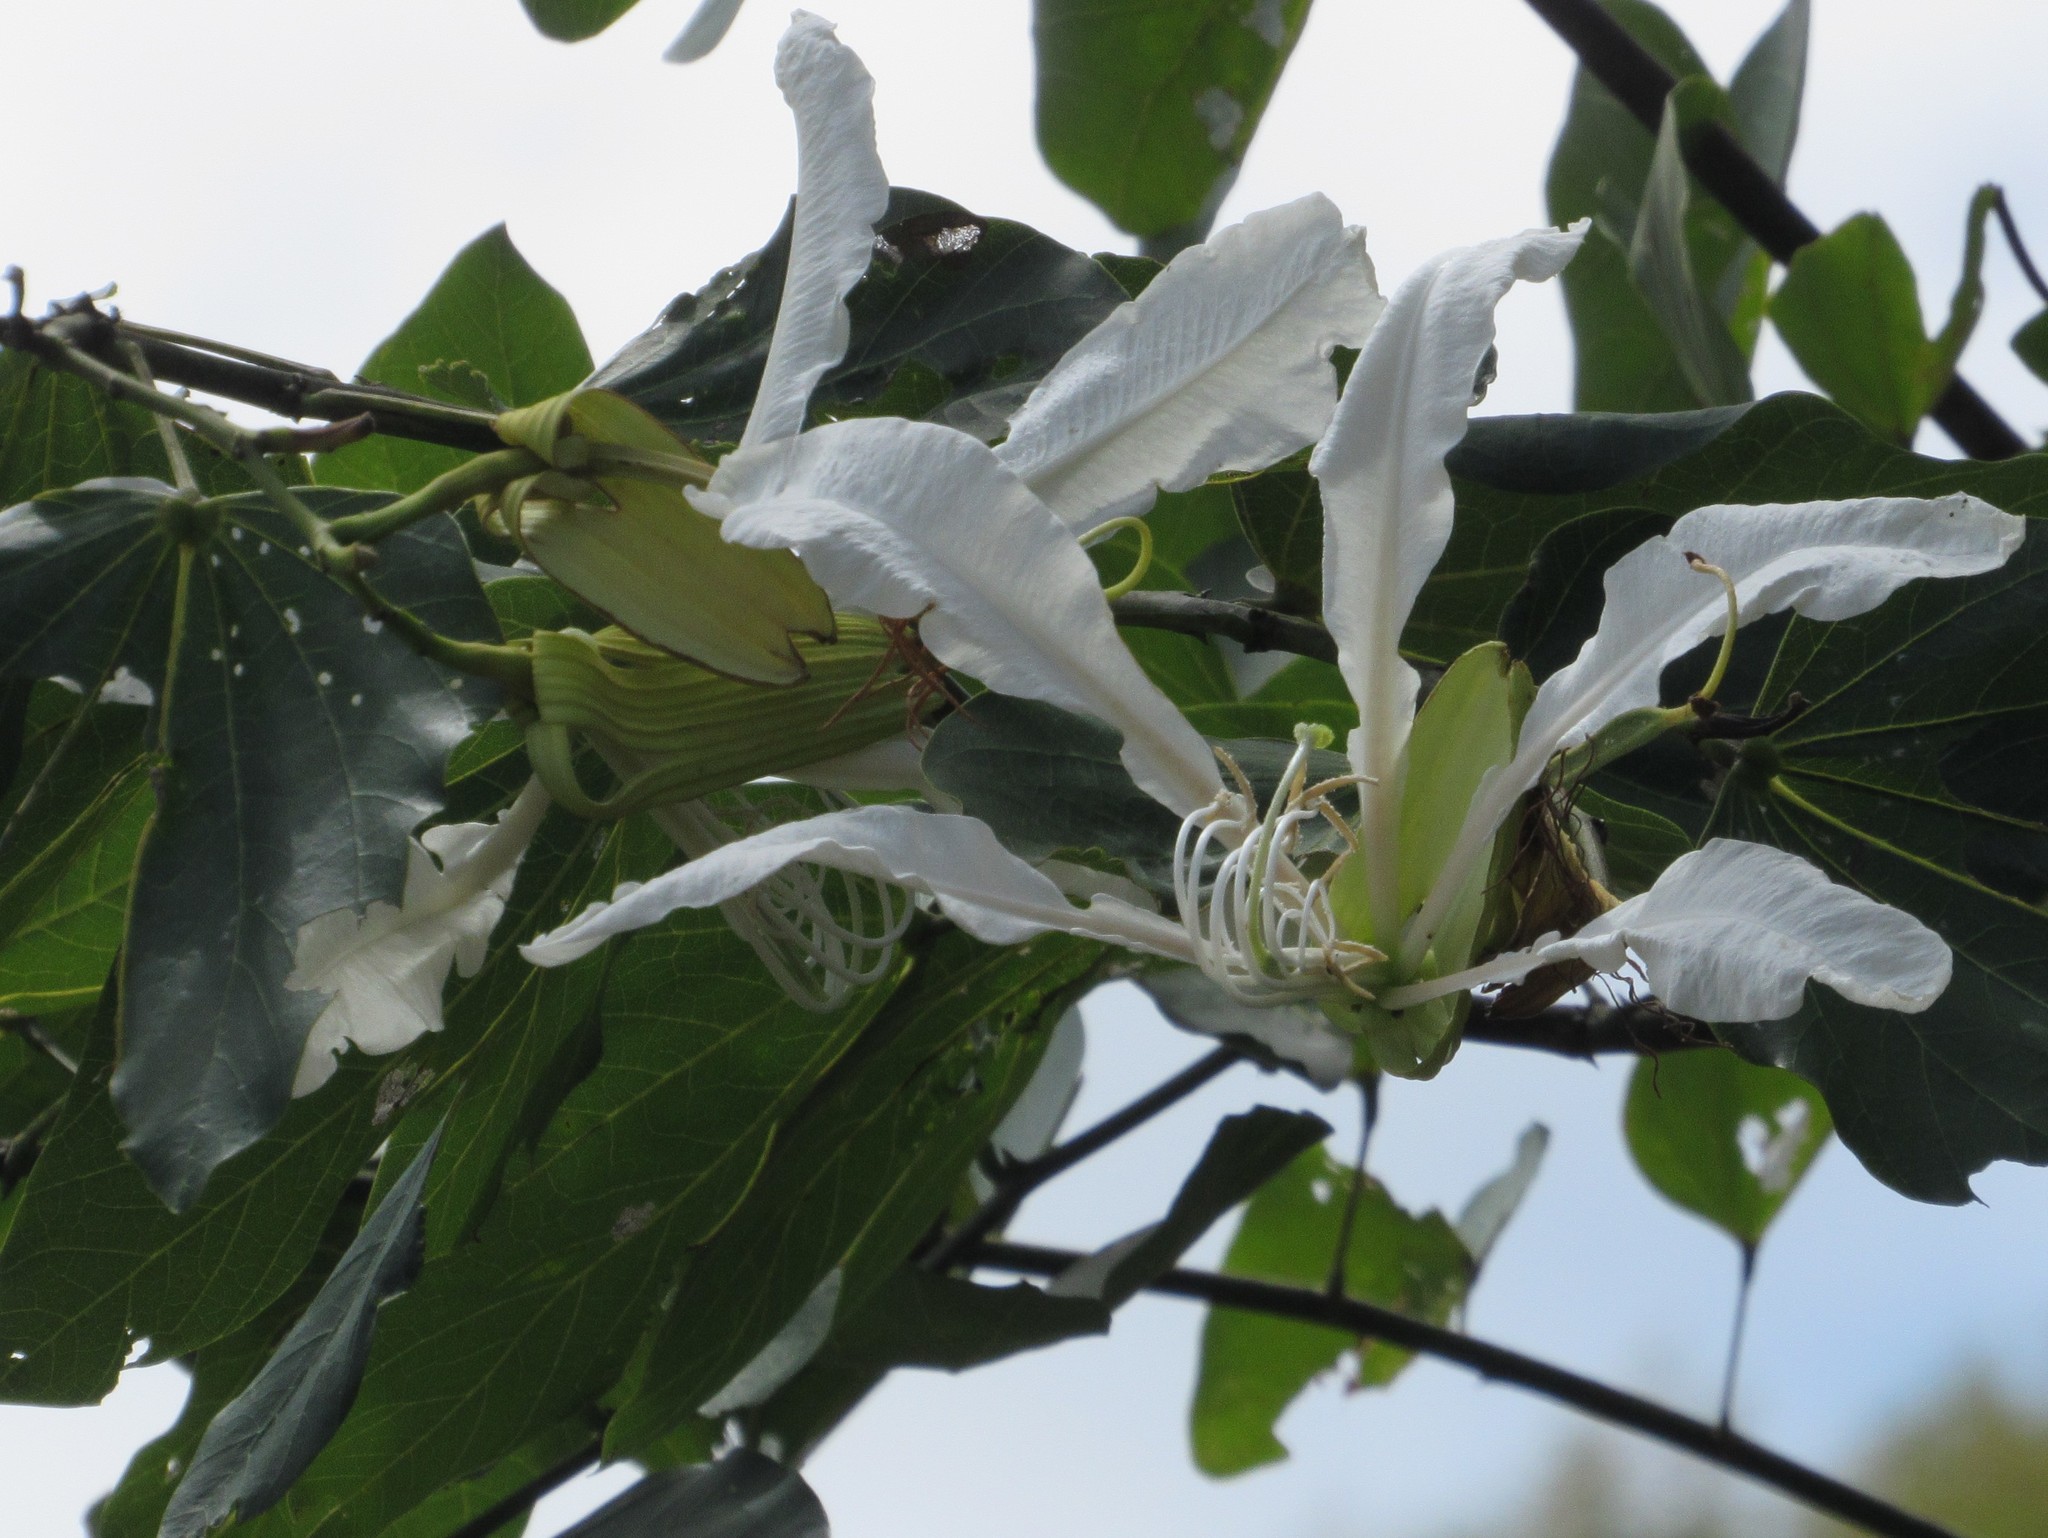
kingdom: Plantae
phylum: Tracheophyta
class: Magnoliopsida
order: Fabales
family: Fabaceae
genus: Bauhinia
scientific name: Bauhinia forficata
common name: Orchid tree
